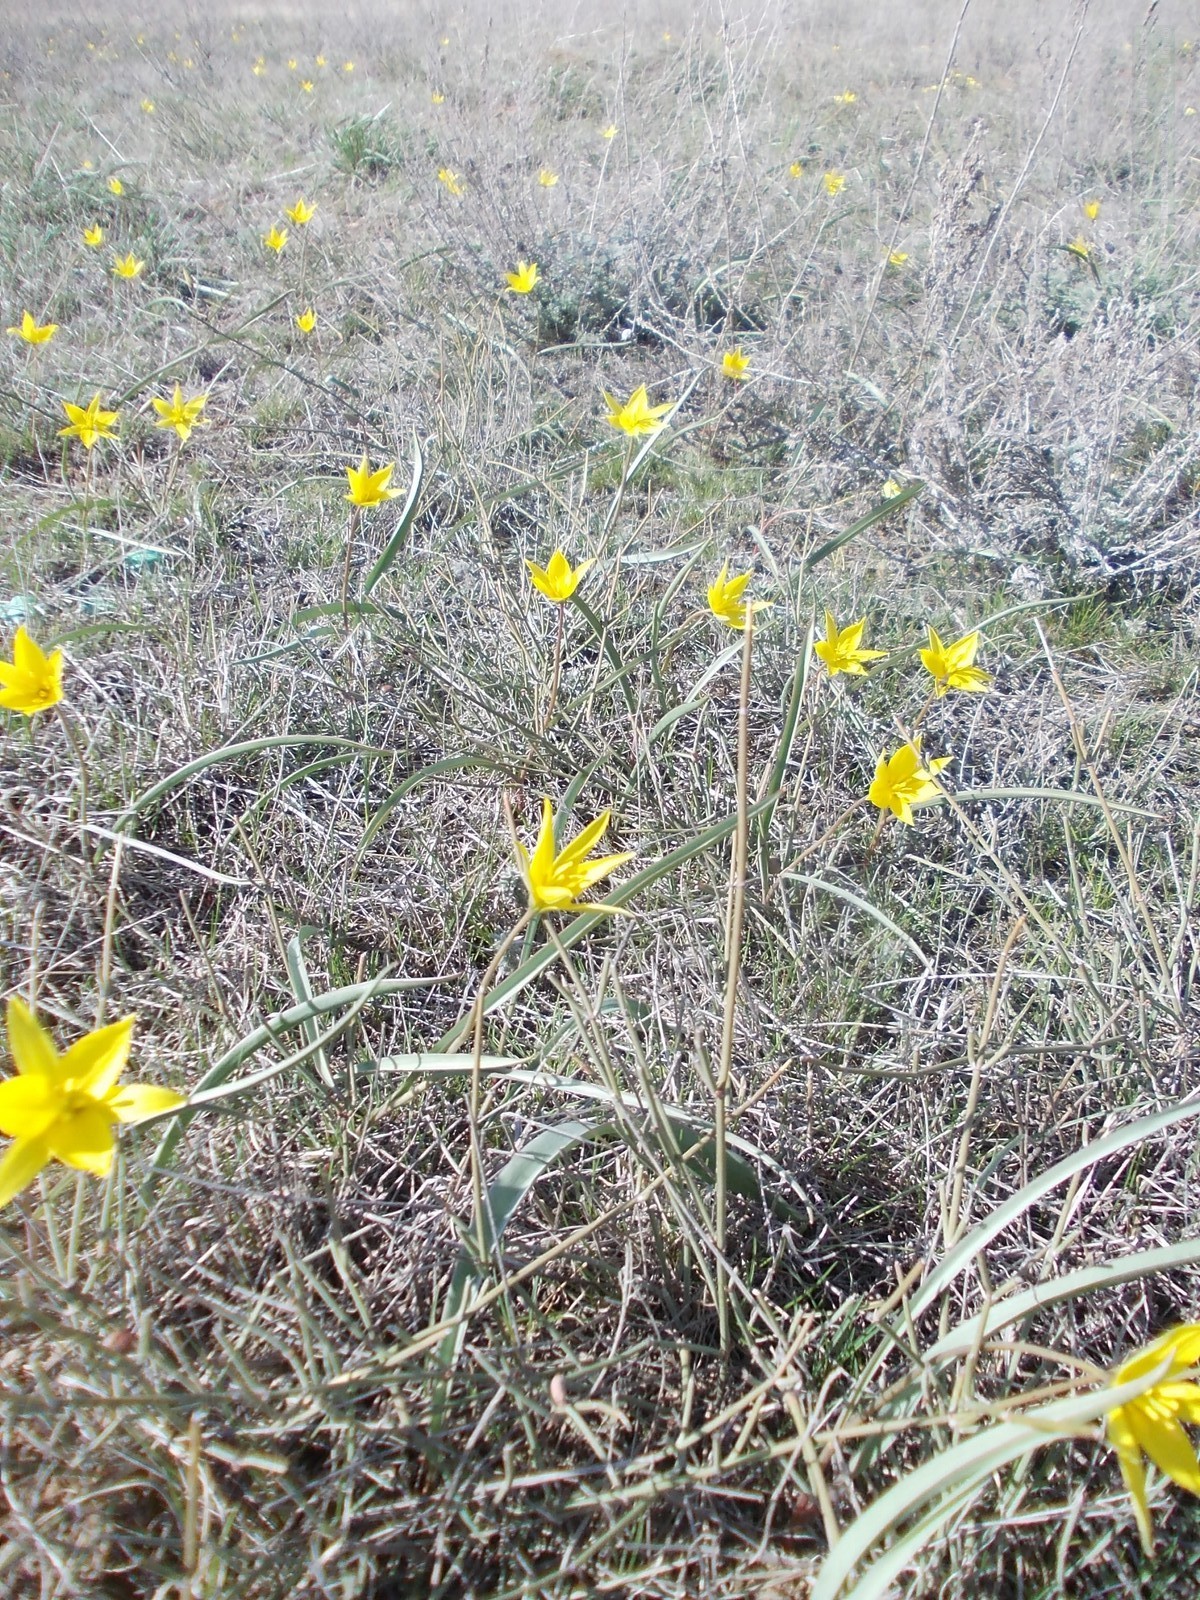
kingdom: Plantae
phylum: Tracheophyta
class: Liliopsida
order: Liliales
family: Liliaceae
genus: Tulipa
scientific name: Tulipa sylvestris
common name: Wild tulip
